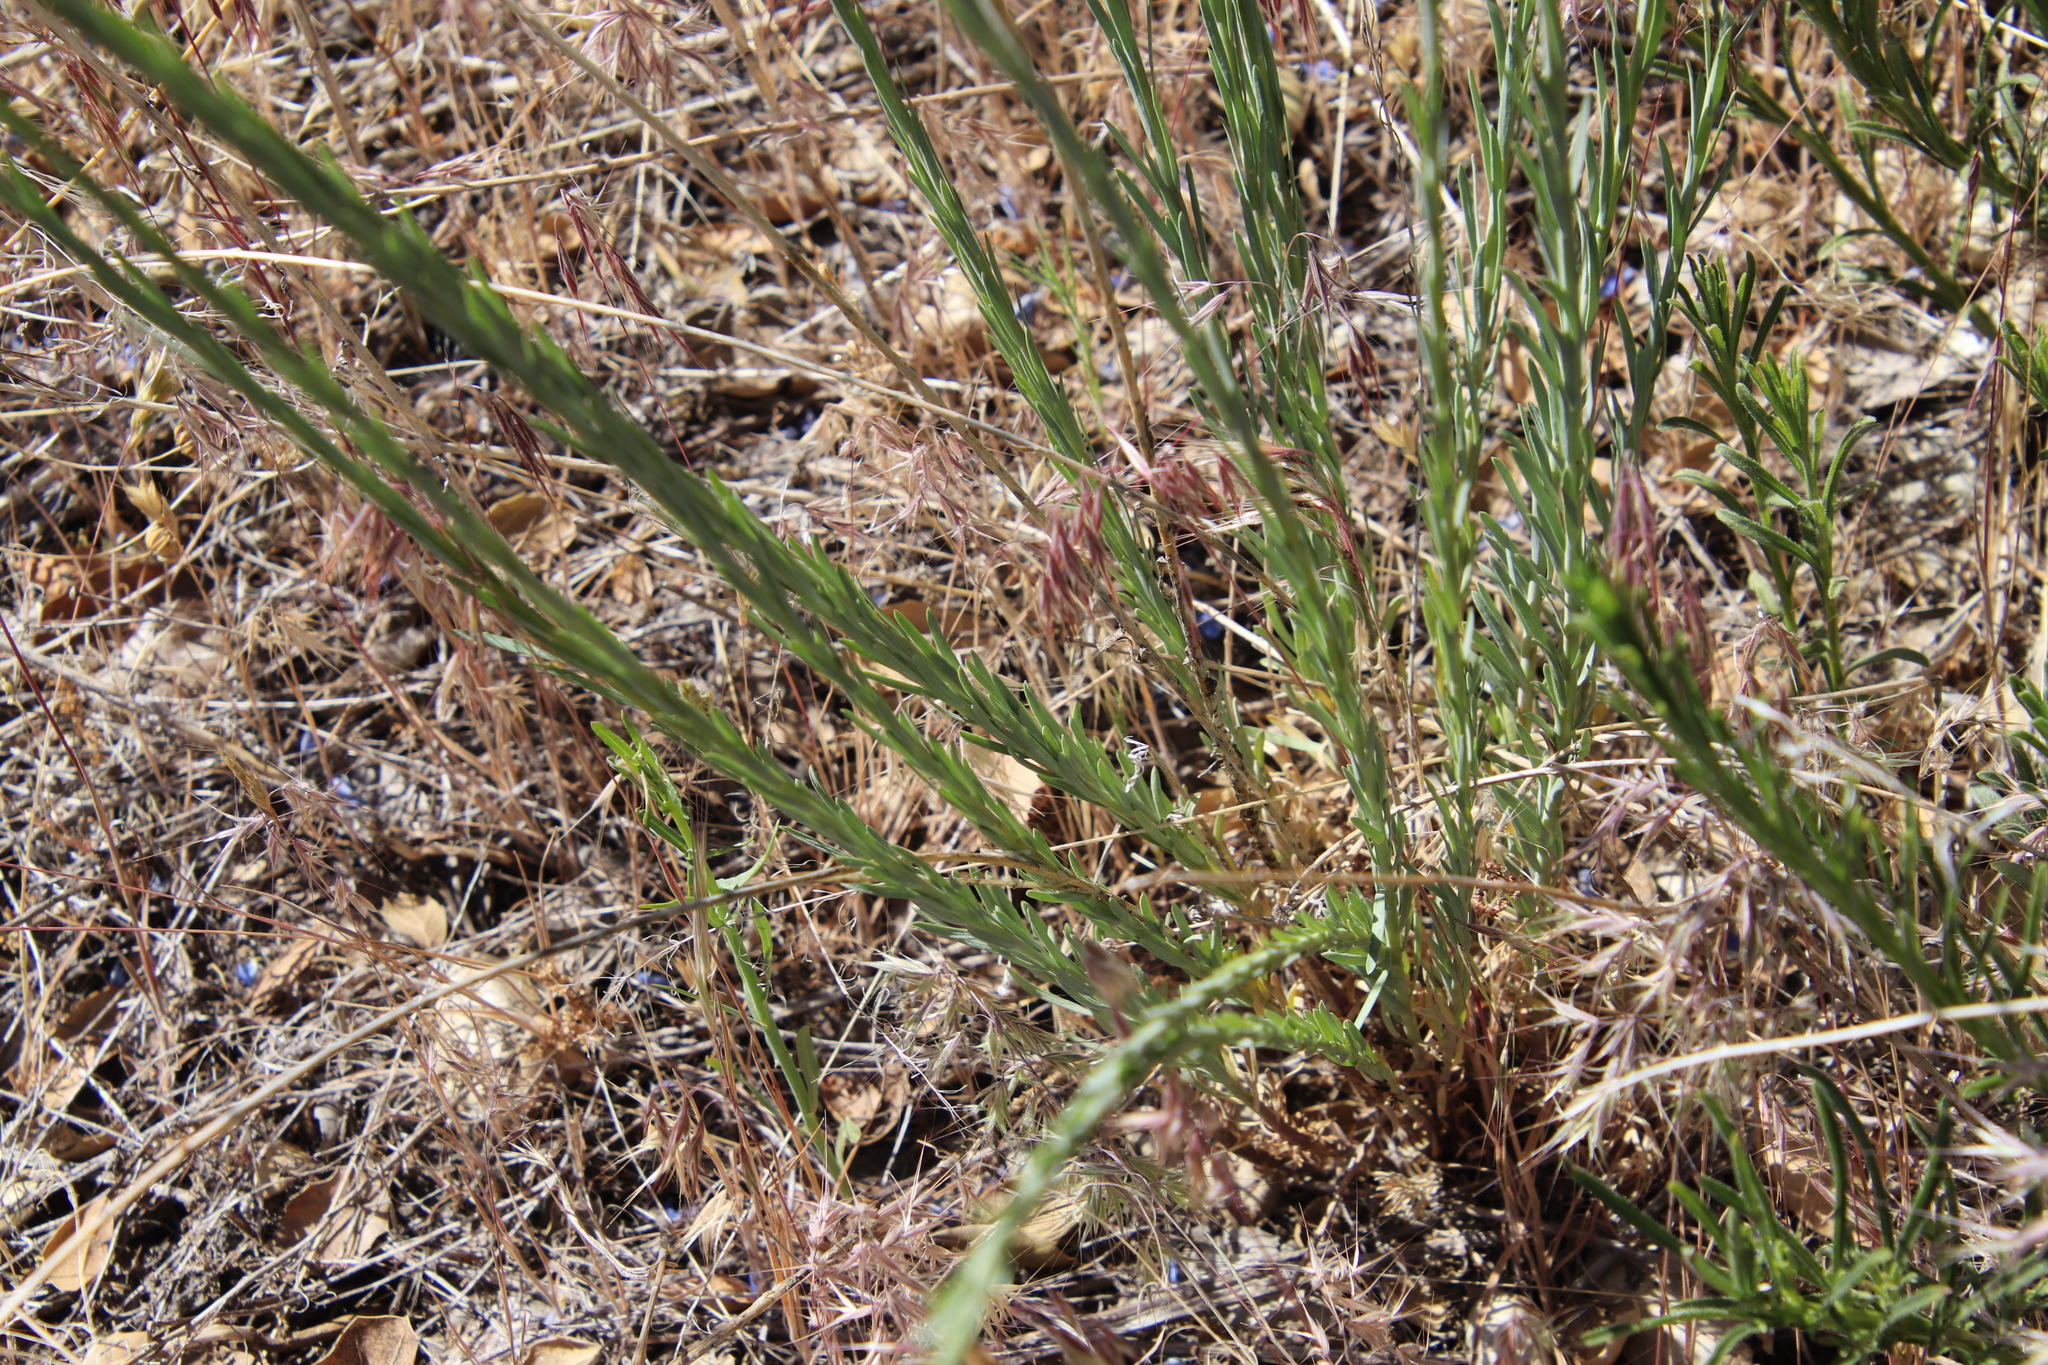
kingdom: Plantae
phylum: Tracheophyta
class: Magnoliopsida
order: Malpighiales
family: Linaceae
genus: Linum
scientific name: Linum lewisii
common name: Prairie flax
